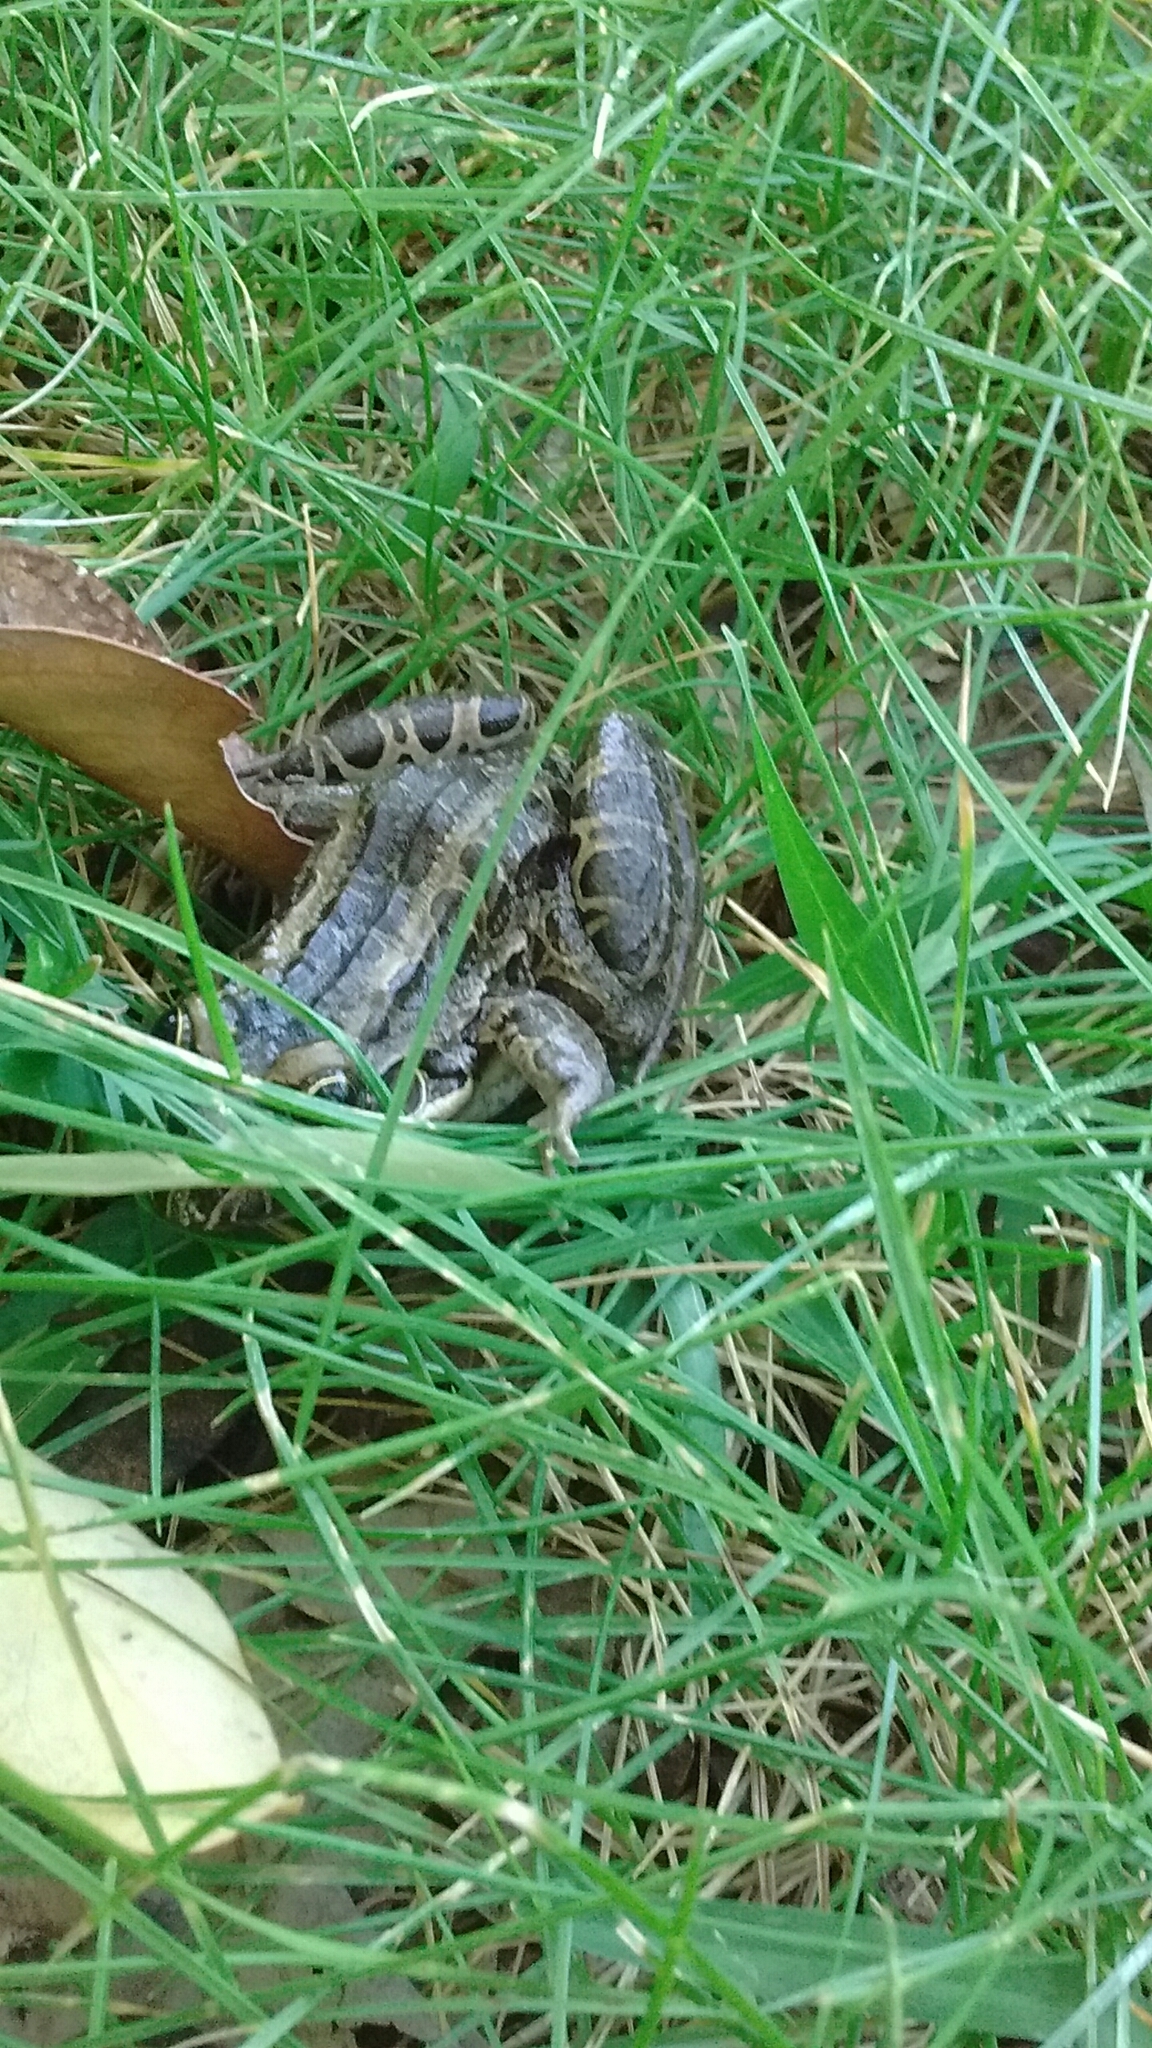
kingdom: Animalia
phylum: Chordata
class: Amphibia
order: Anura
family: Leptodactylidae
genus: Leptodactylus
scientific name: Leptodactylus luctator
